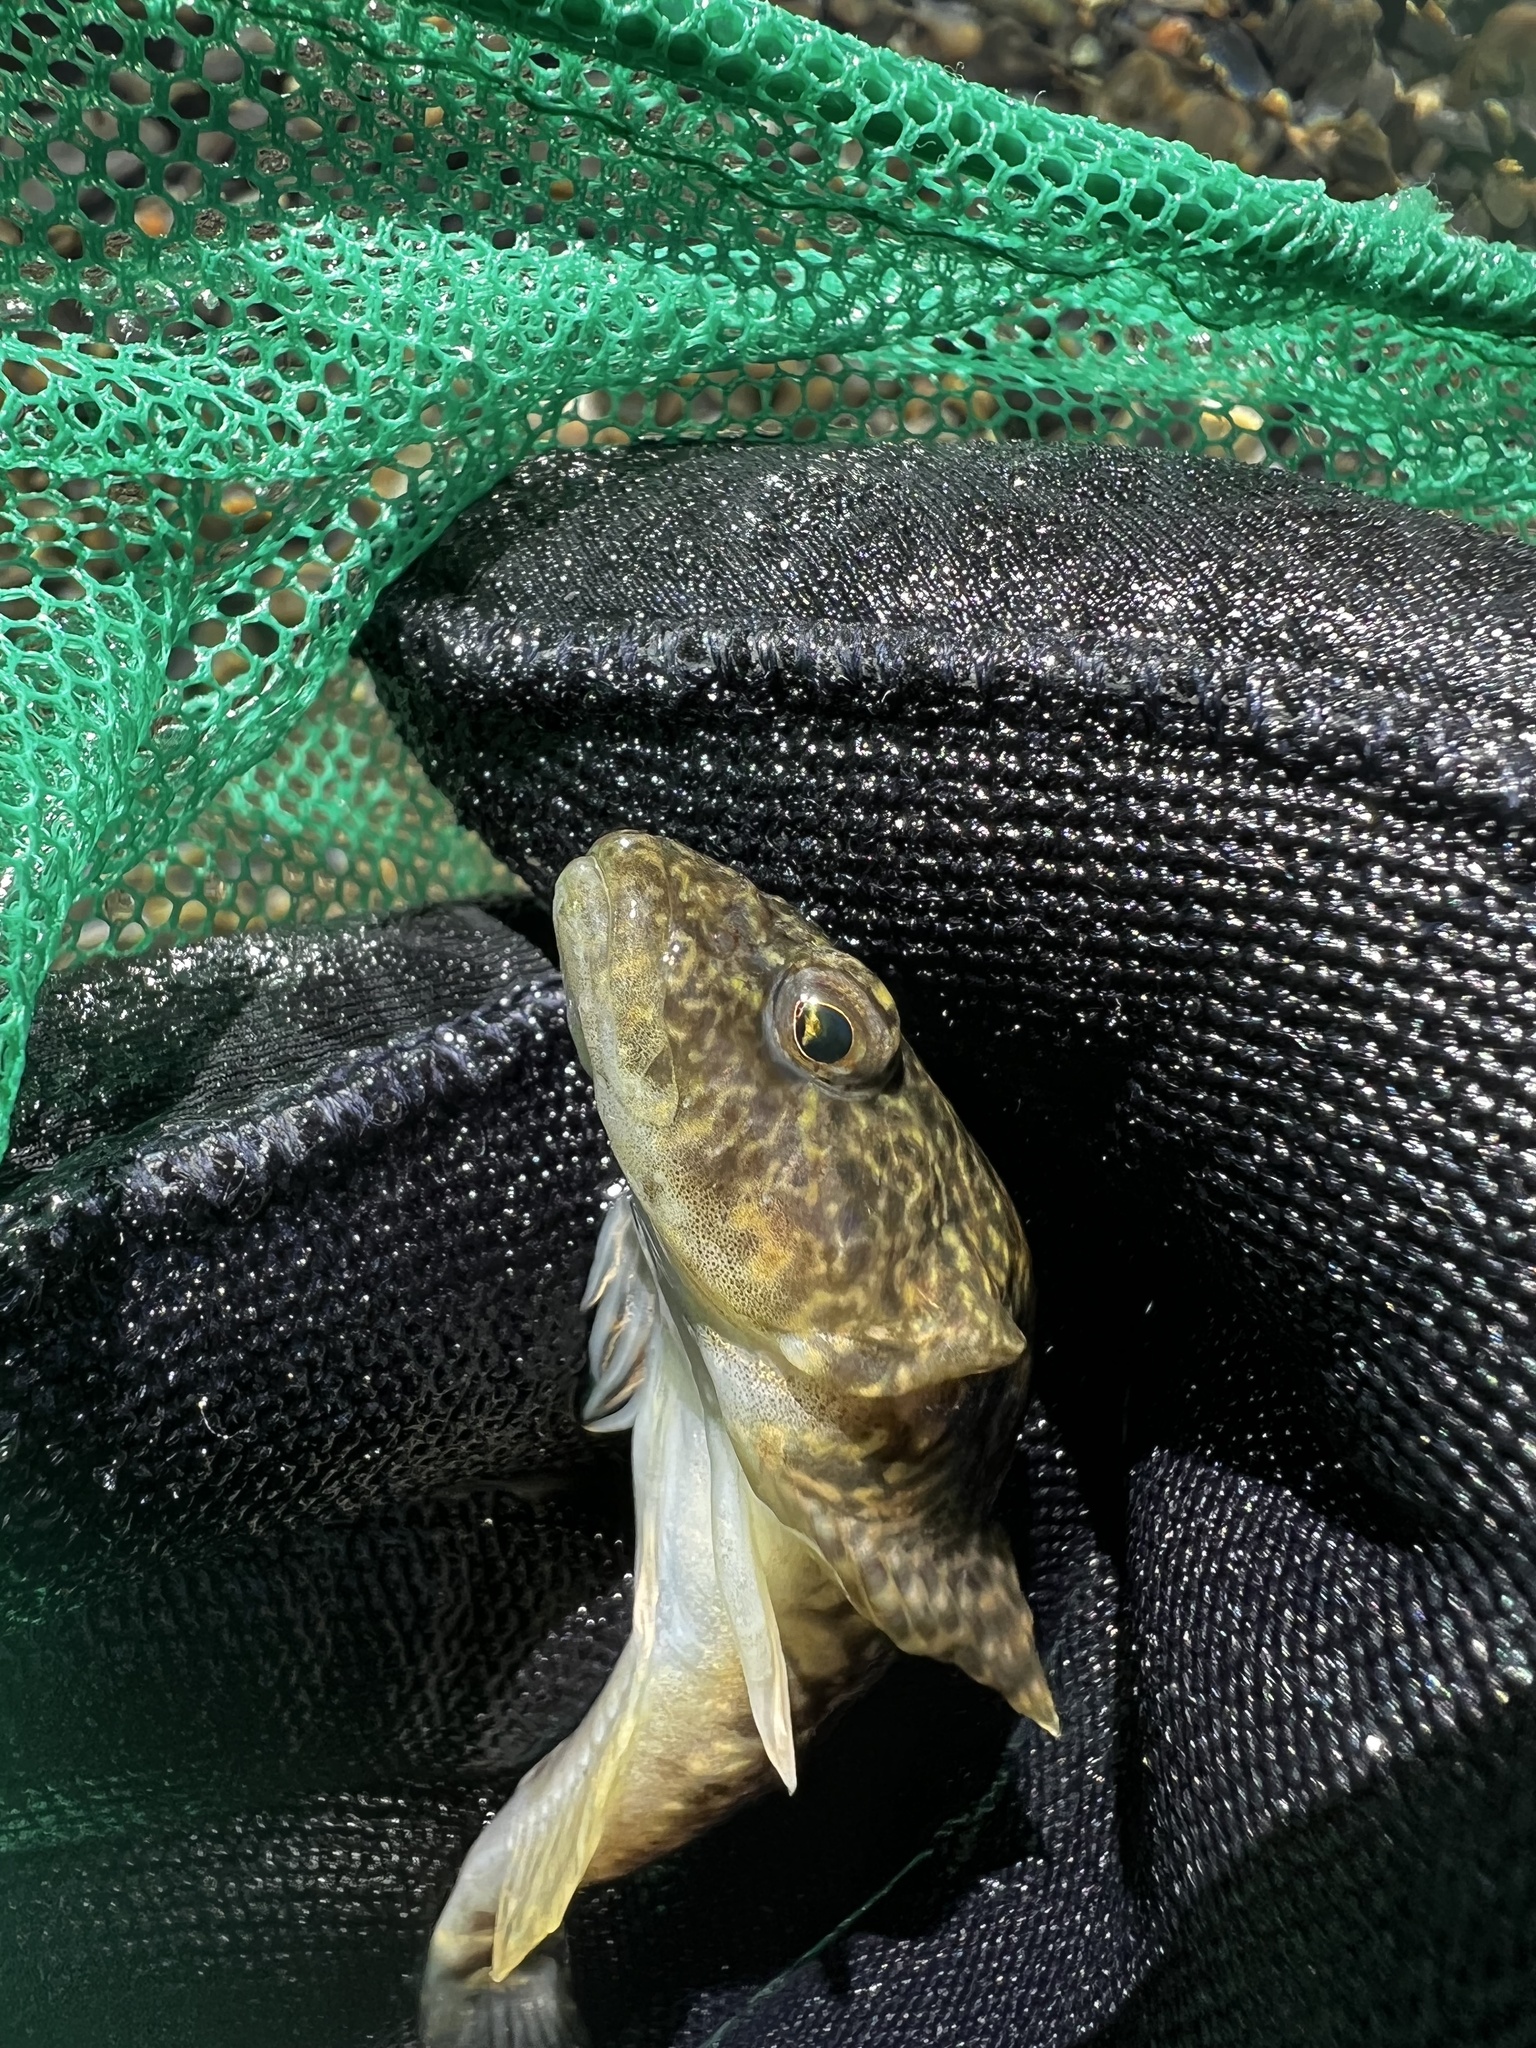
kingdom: Animalia
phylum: Chordata
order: Scorpaeniformes
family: Cottidae
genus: Cottus
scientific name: Cottus aleuticus
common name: Coastrange sculpin
